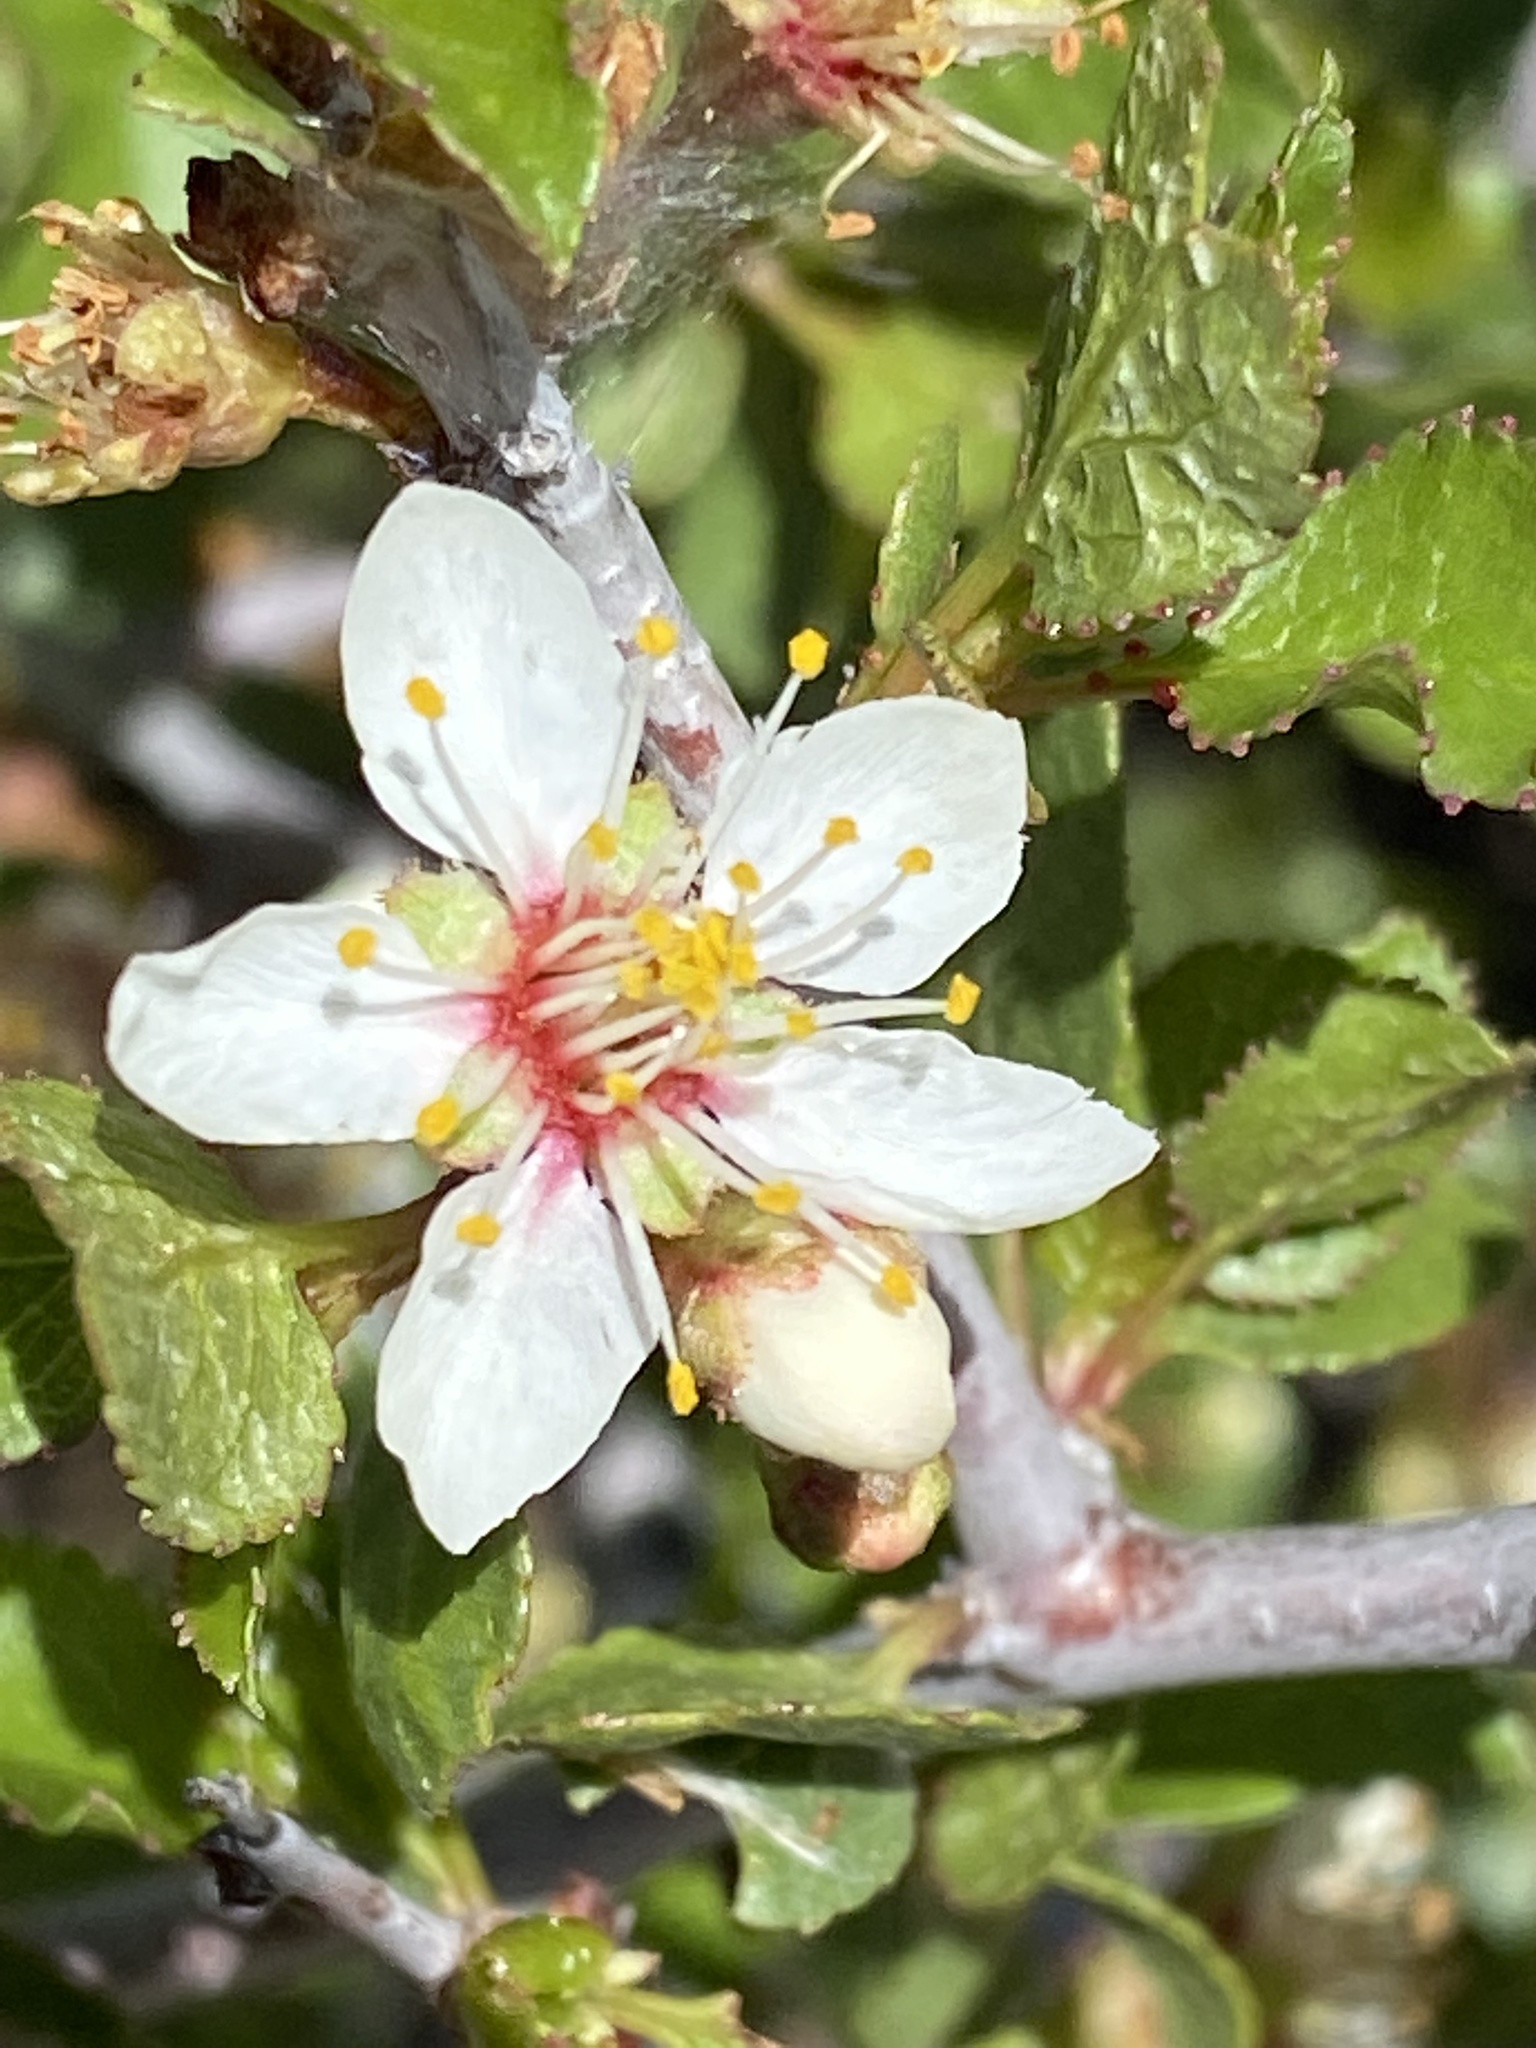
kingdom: Plantae
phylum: Tracheophyta
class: Magnoliopsida
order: Rosales
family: Rosaceae
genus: Prunus
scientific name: Prunus fremontii
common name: Desert apricot
